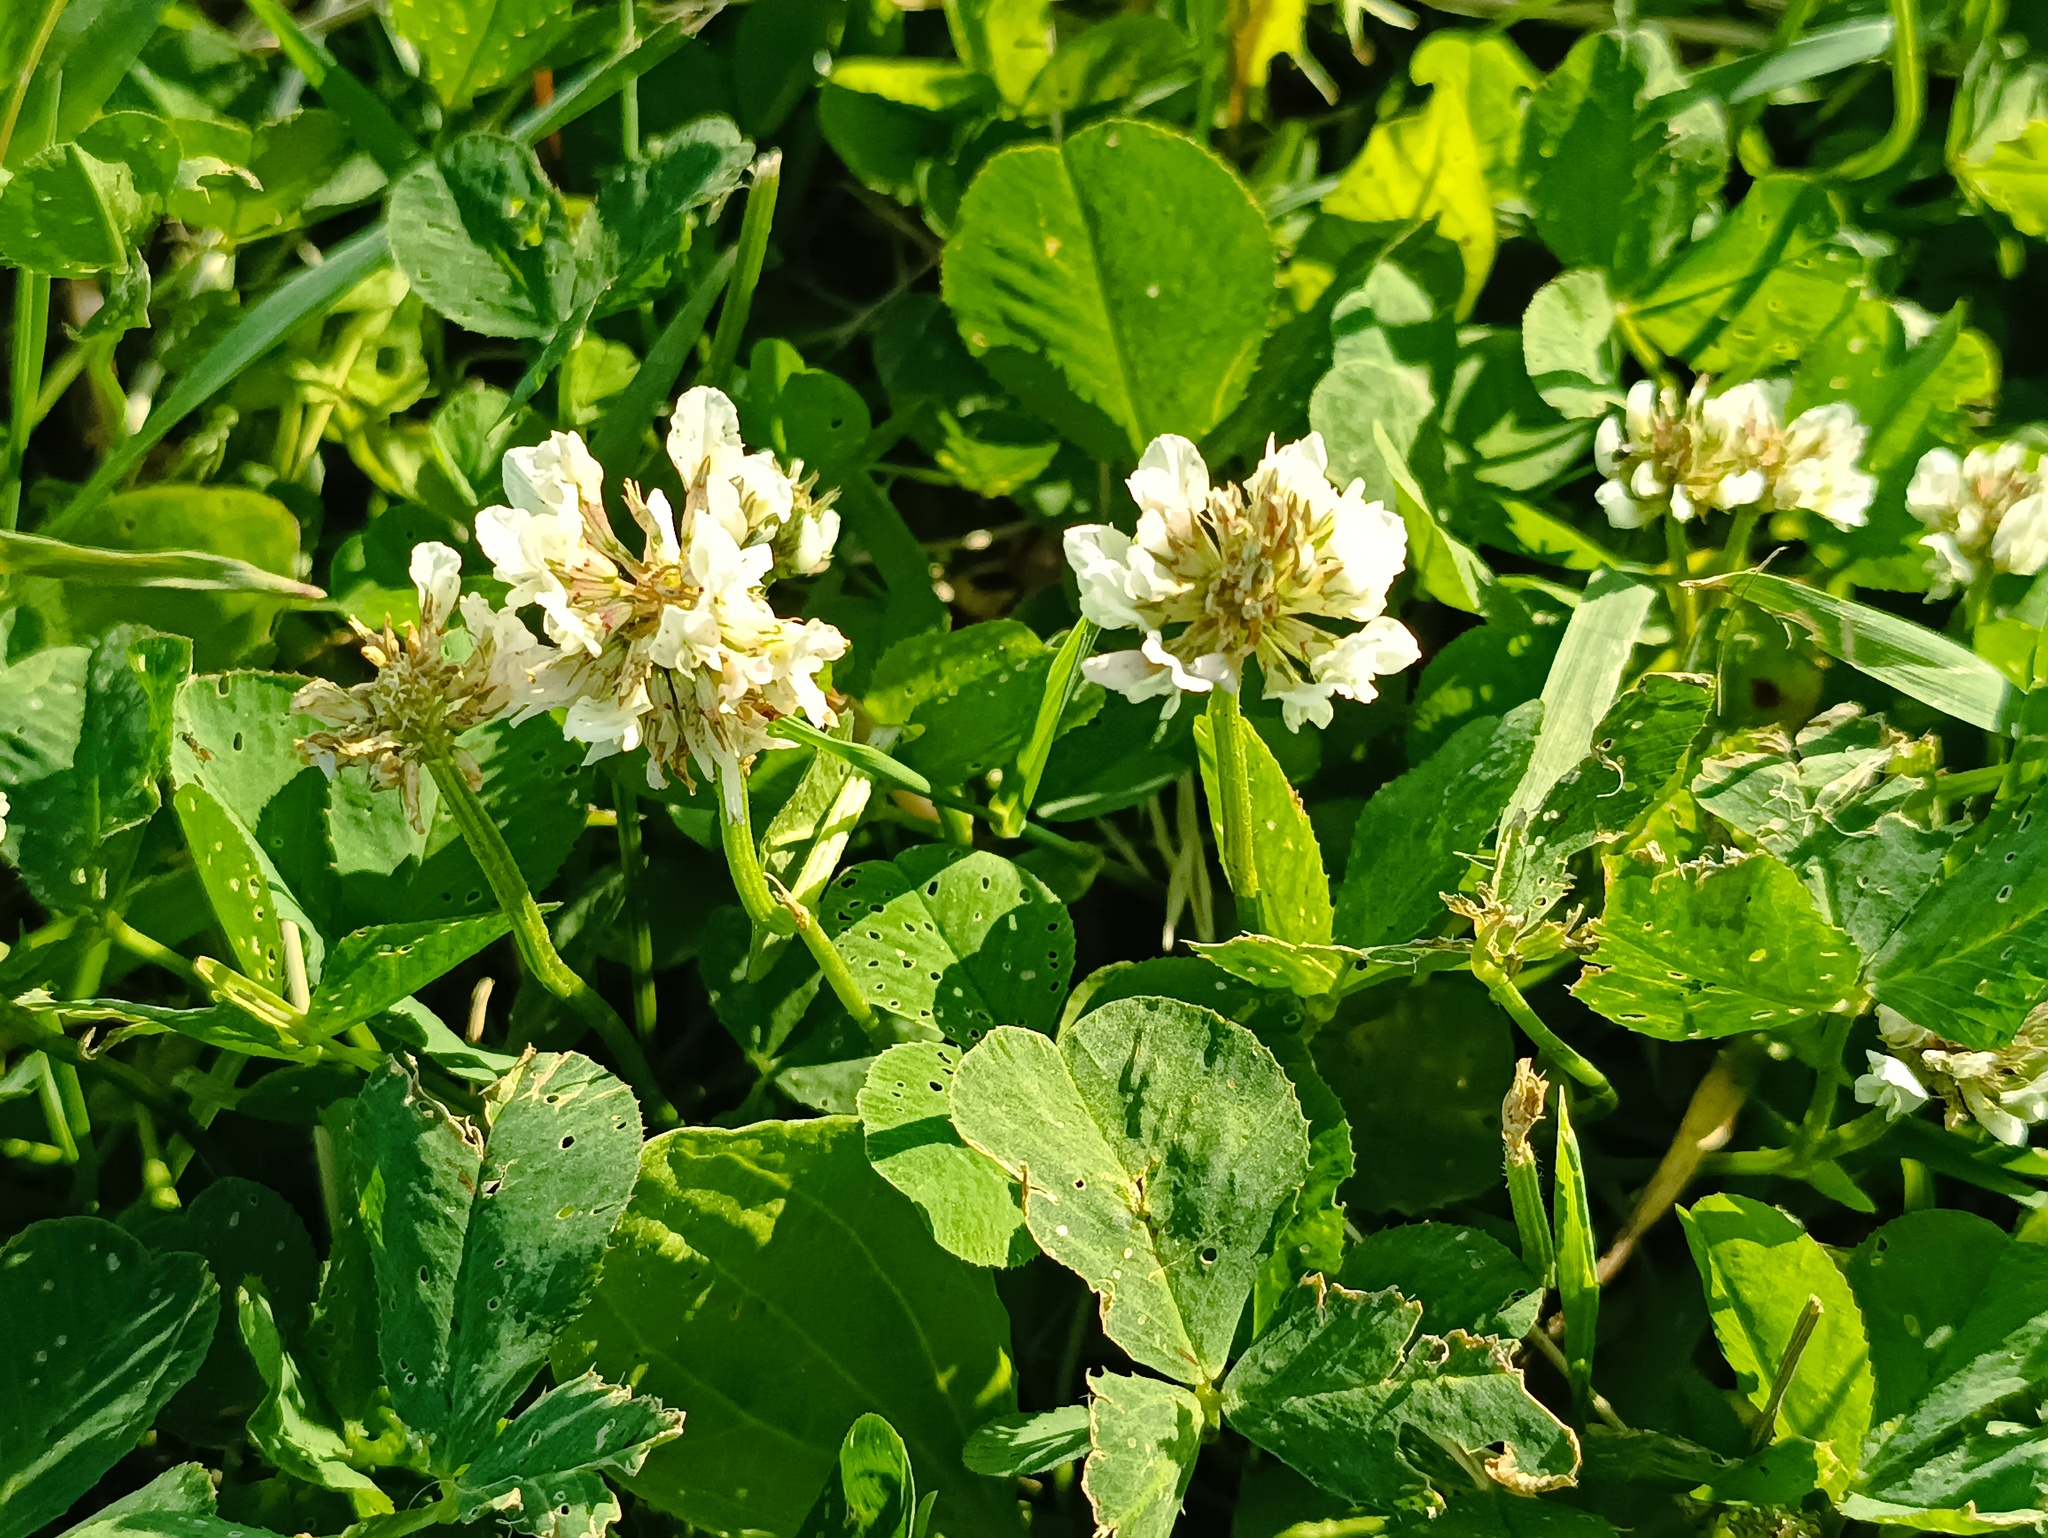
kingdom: Plantae
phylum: Tracheophyta
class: Magnoliopsida
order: Fabales
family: Fabaceae
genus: Trifolium
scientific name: Trifolium repens
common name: White clover
